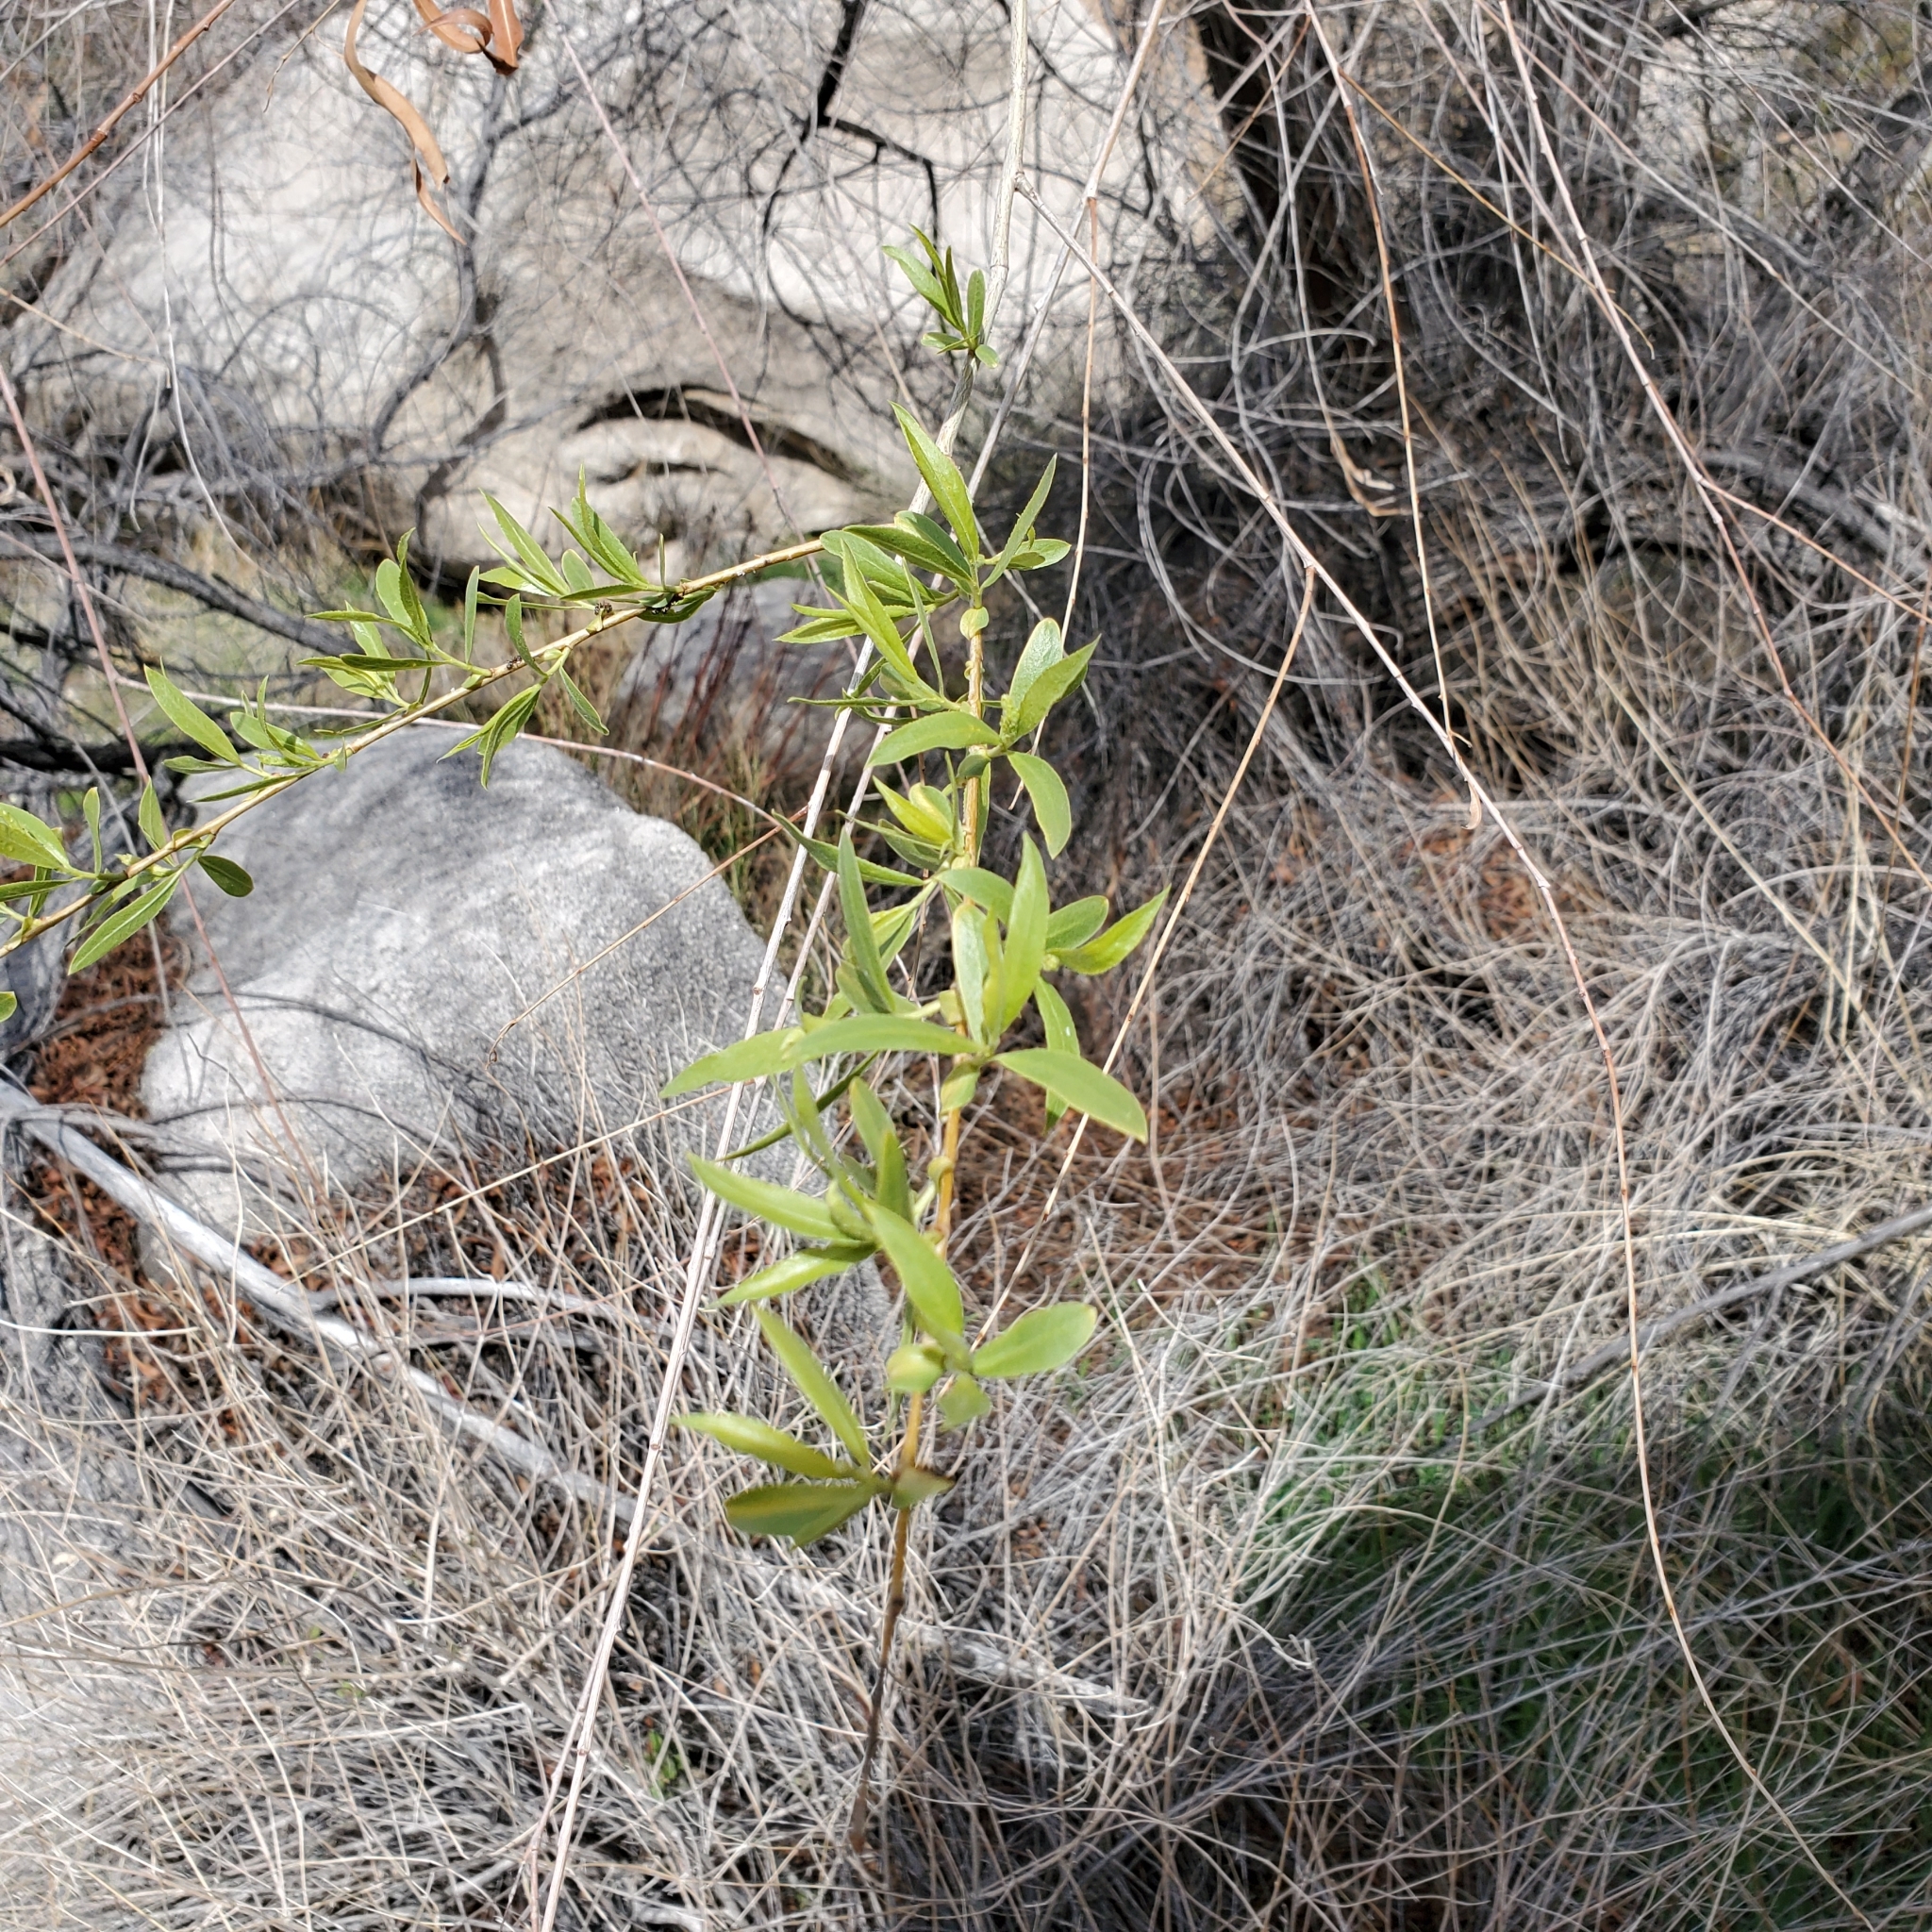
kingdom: Plantae
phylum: Tracheophyta
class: Magnoliopsida
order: Malpighiales
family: Salicaceae
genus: Salix
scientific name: Salix gooddingii
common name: Goodding's willow
